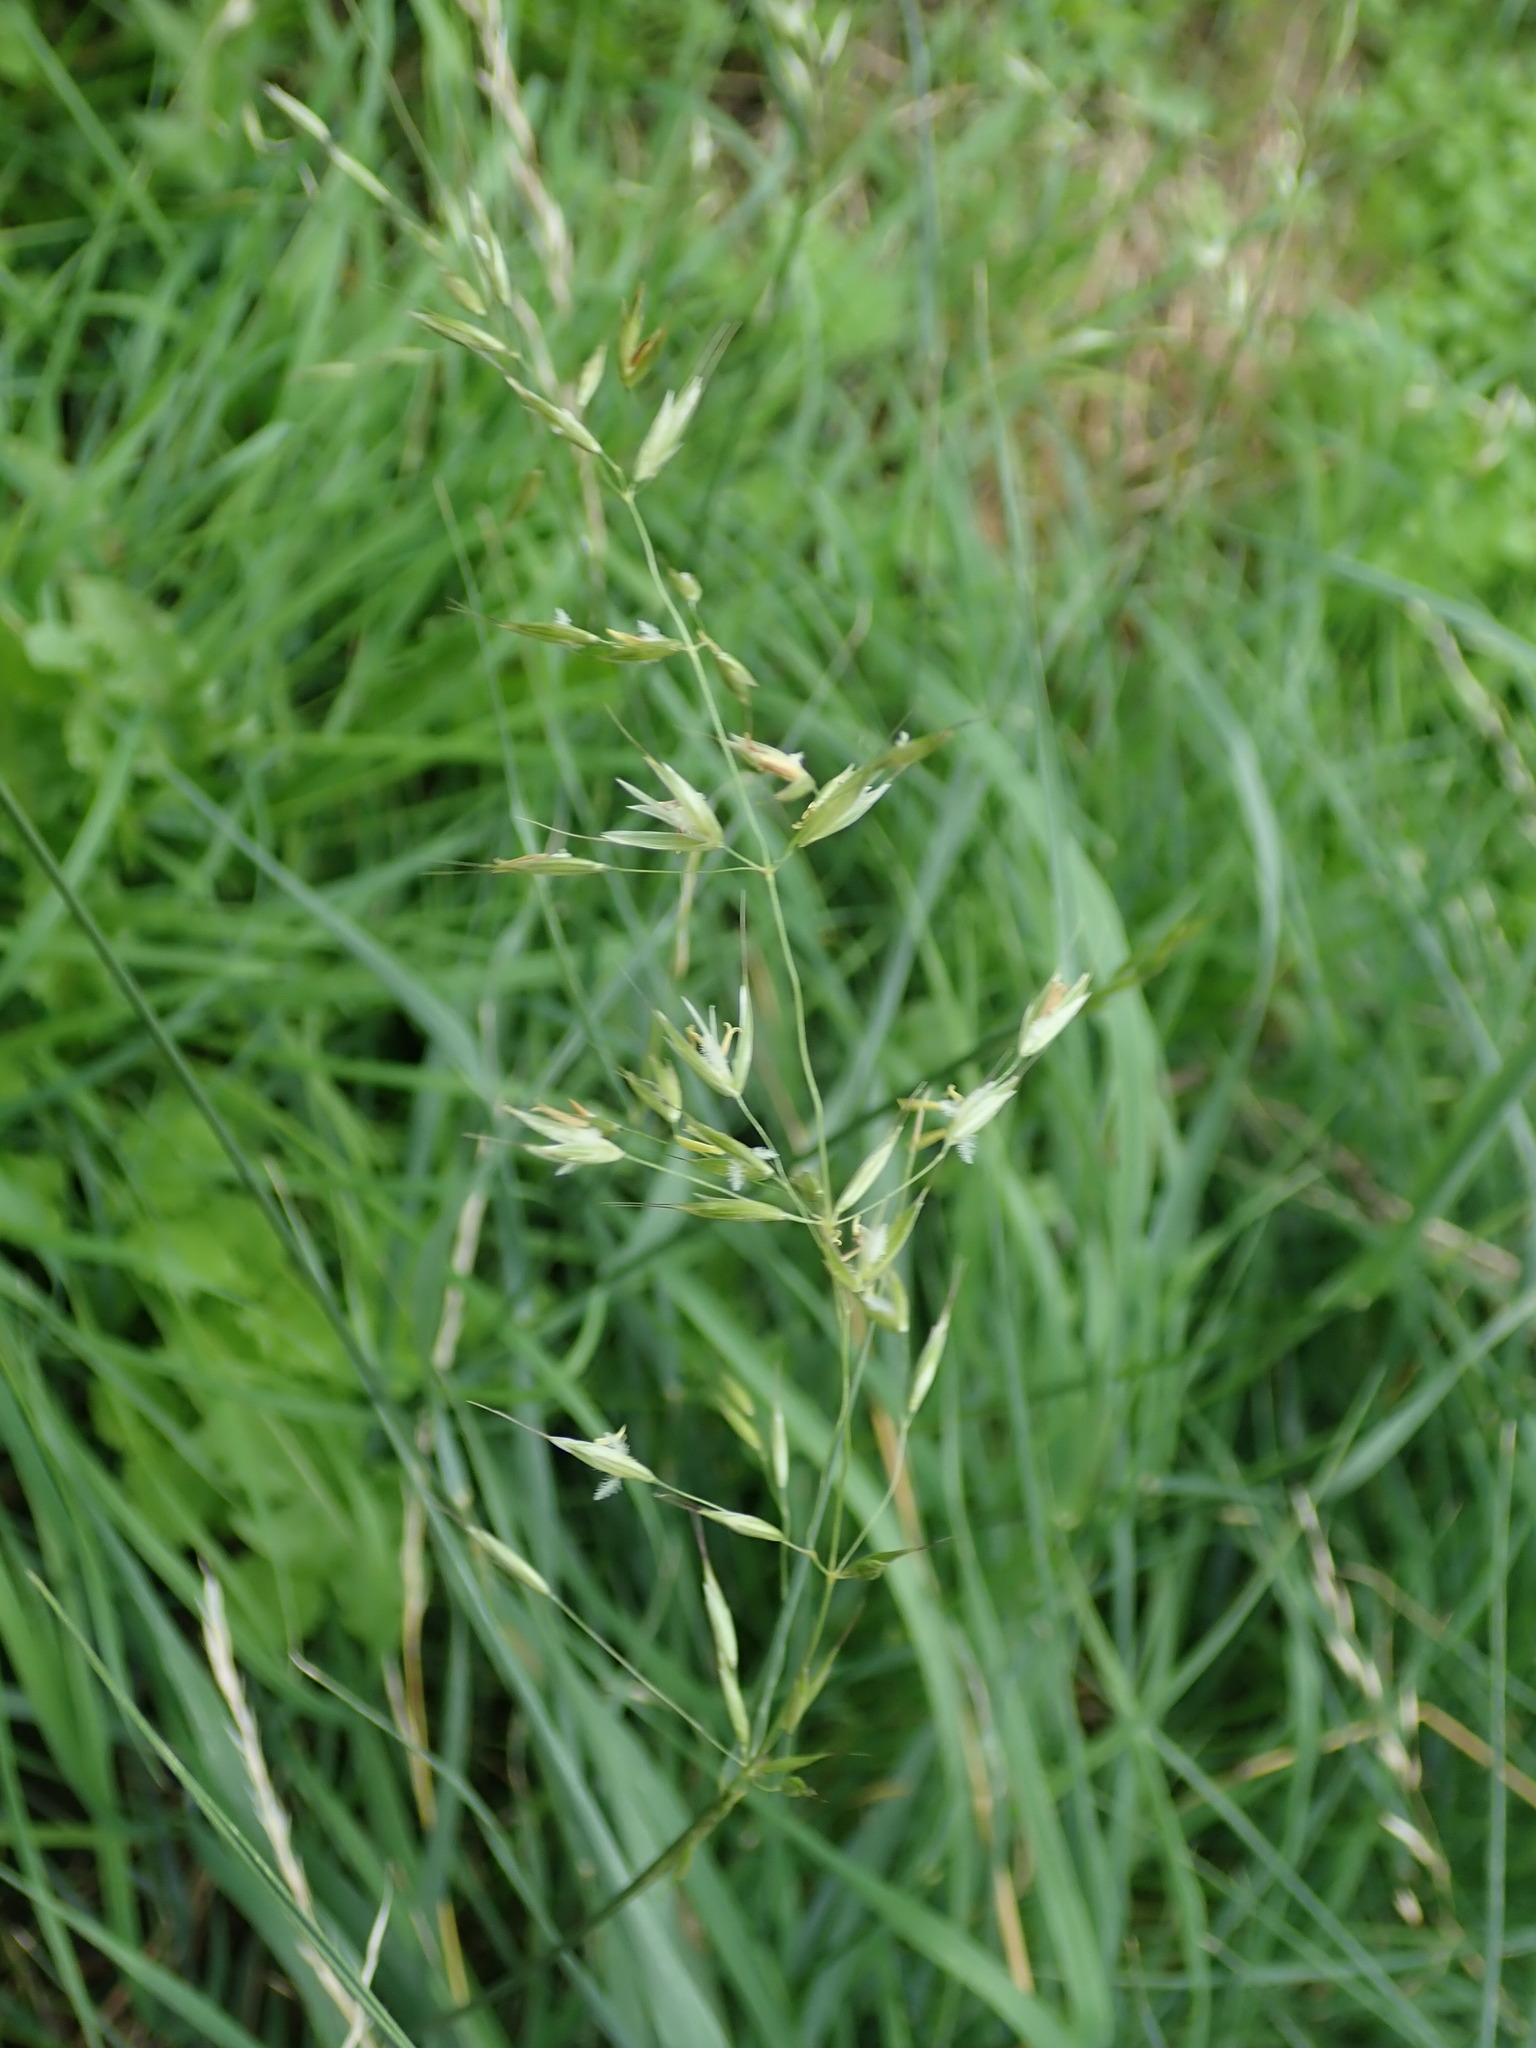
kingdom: Plantae
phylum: Tracheophyta
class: Liliopsida
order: Poales
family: Poaceae
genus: Arrhenatherum
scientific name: Arrhenatherum elatius
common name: Tall oatgrass
